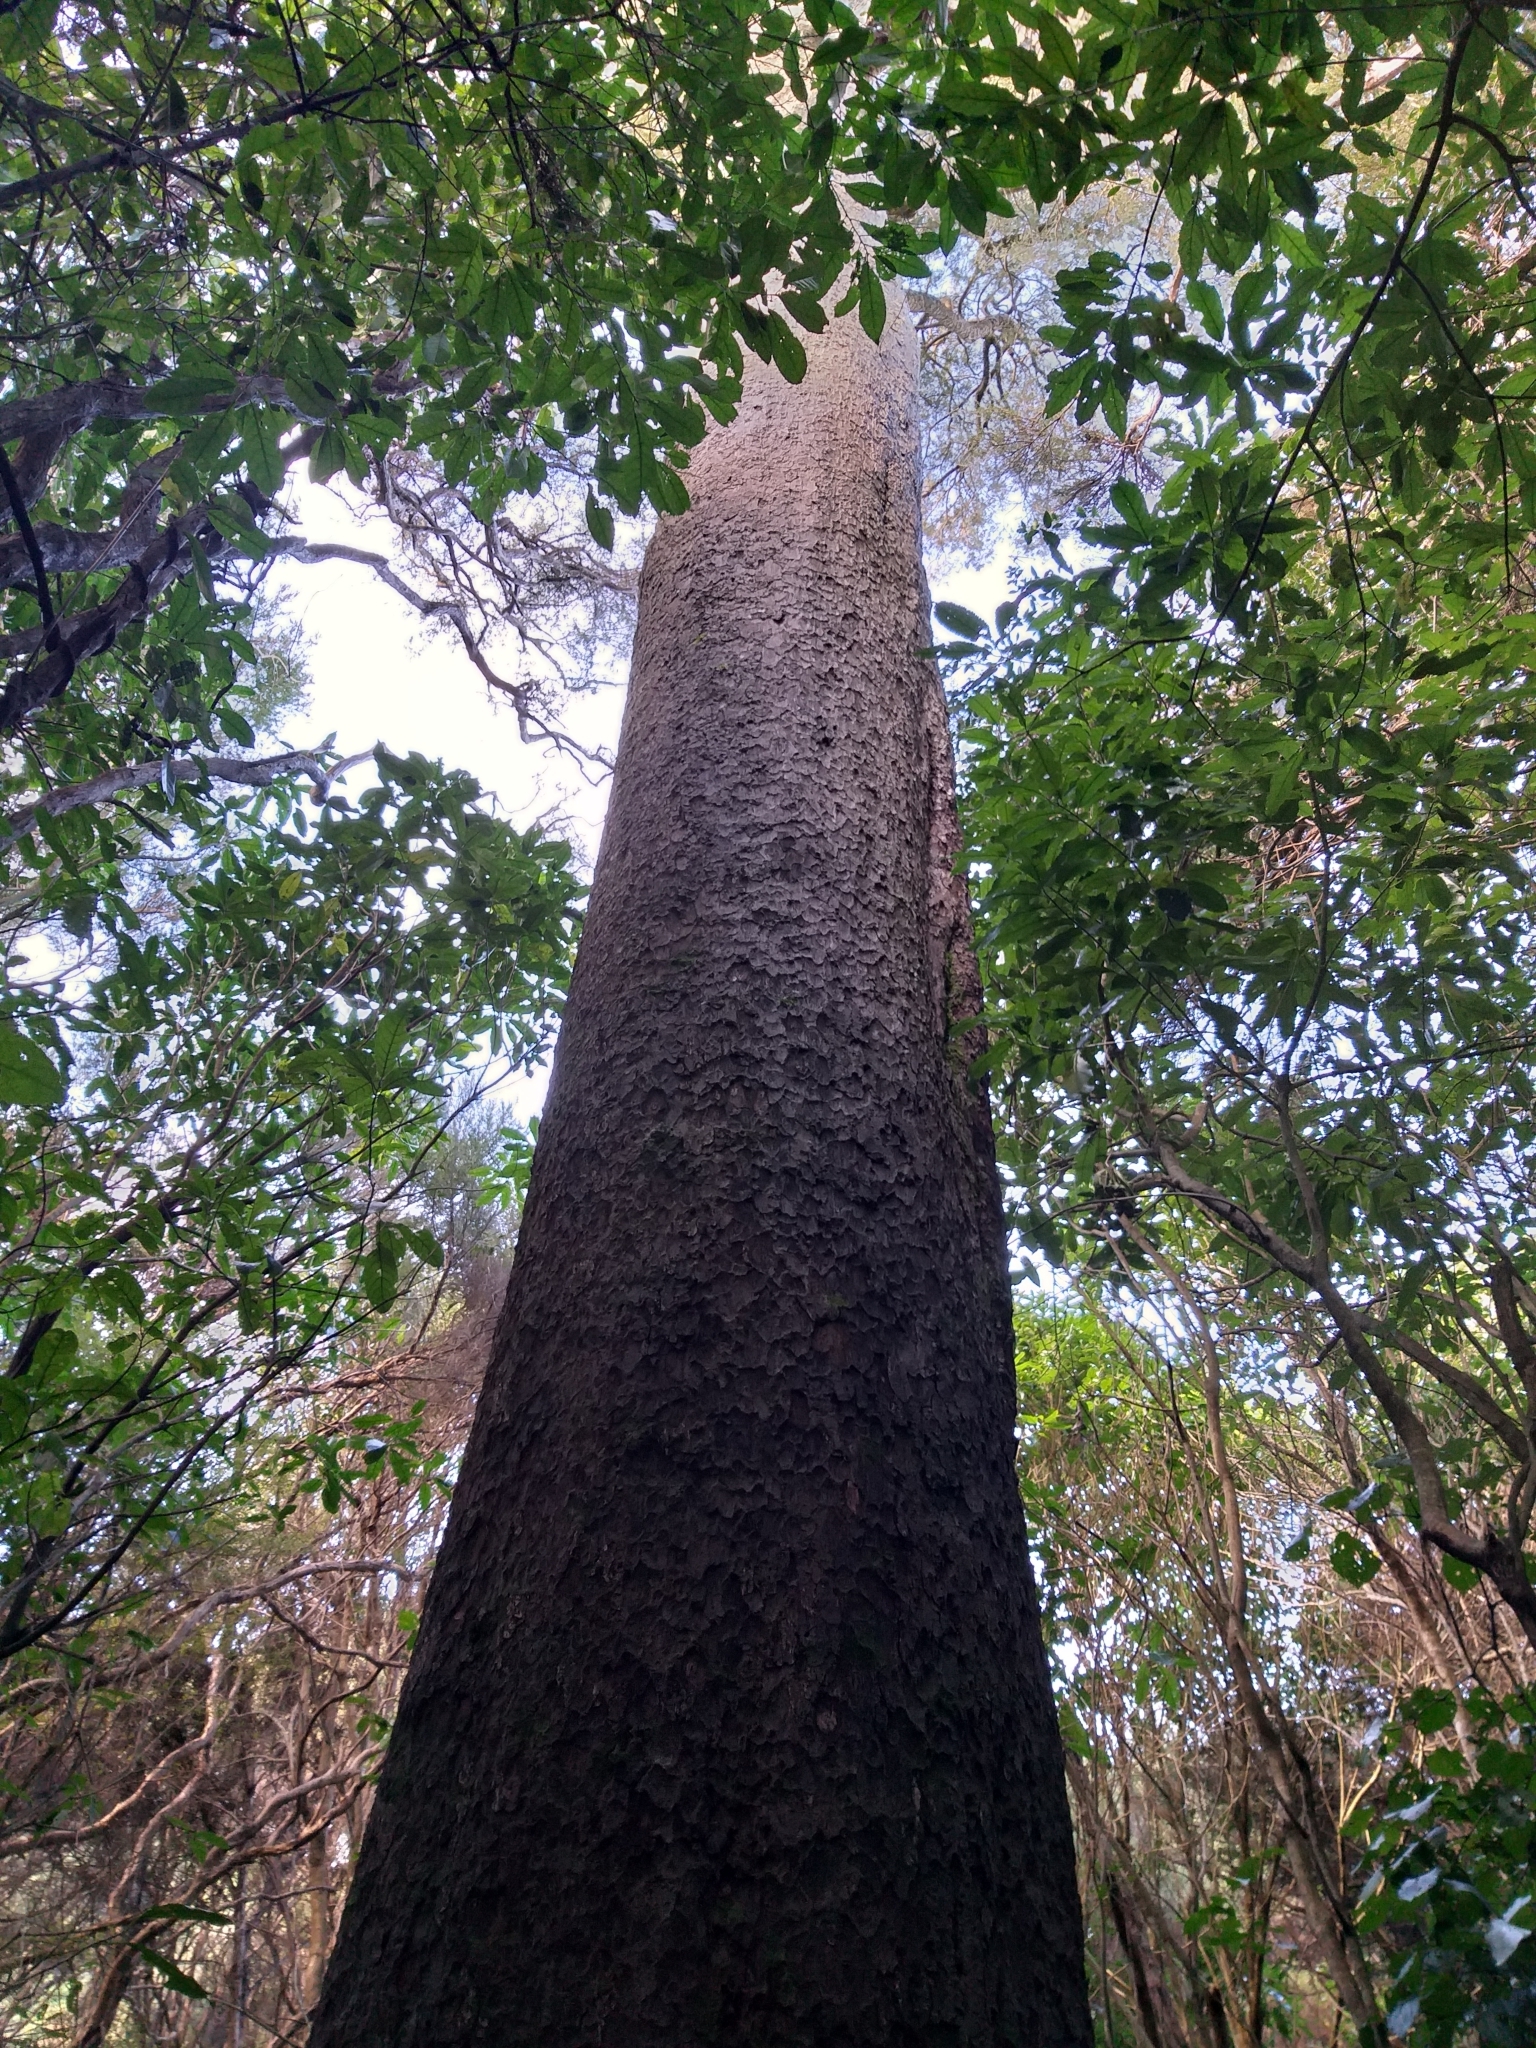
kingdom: Plantae
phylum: Tracheophyta
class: Pinopsida
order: Pinales
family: Podocarpaceae
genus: Dacrycarpus
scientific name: Dacrycarpus dacrydioides
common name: White pine
